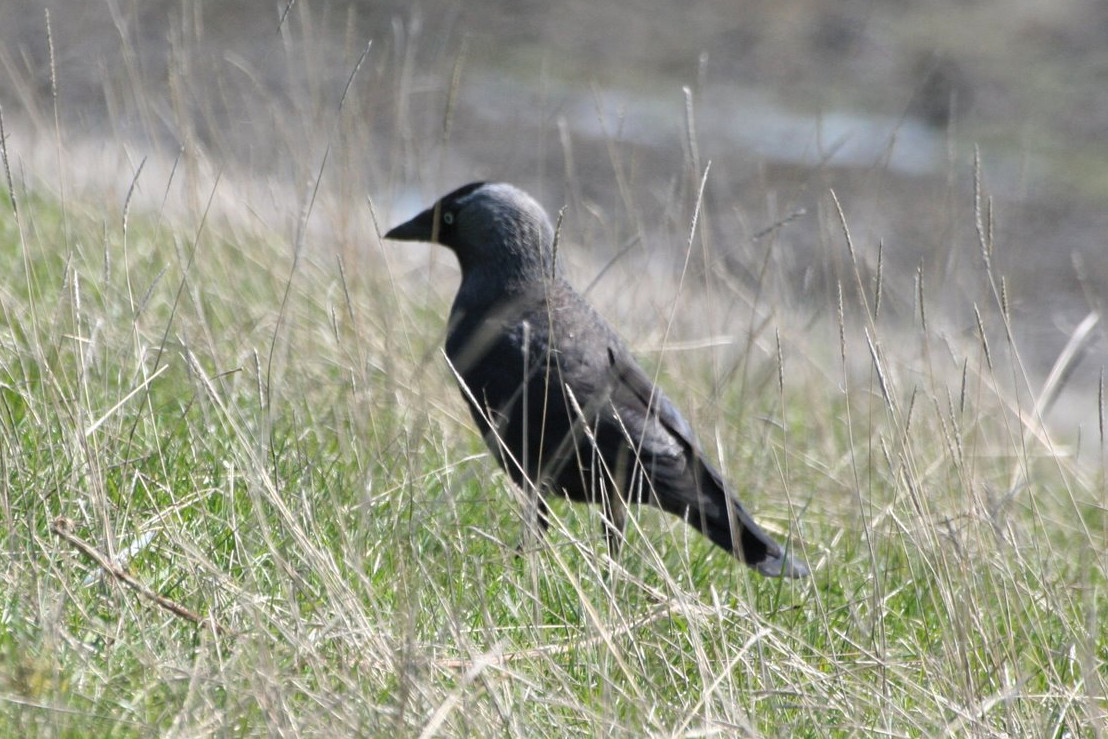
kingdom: Animalia
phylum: Chordata
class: Aves
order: Passeriformes
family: Corvidae
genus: Coloeus
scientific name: Coloeus monedula
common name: Western jackdaw
